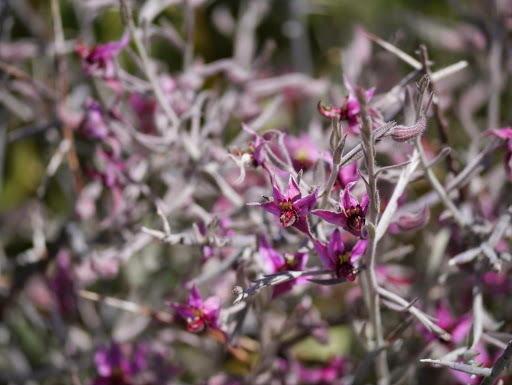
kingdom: Plantae
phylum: Tracheophyta
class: Magnoliopsida
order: Zygophyllales
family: Krameriaceae
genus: Krameria
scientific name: Krameria bicolor
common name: White ratany
